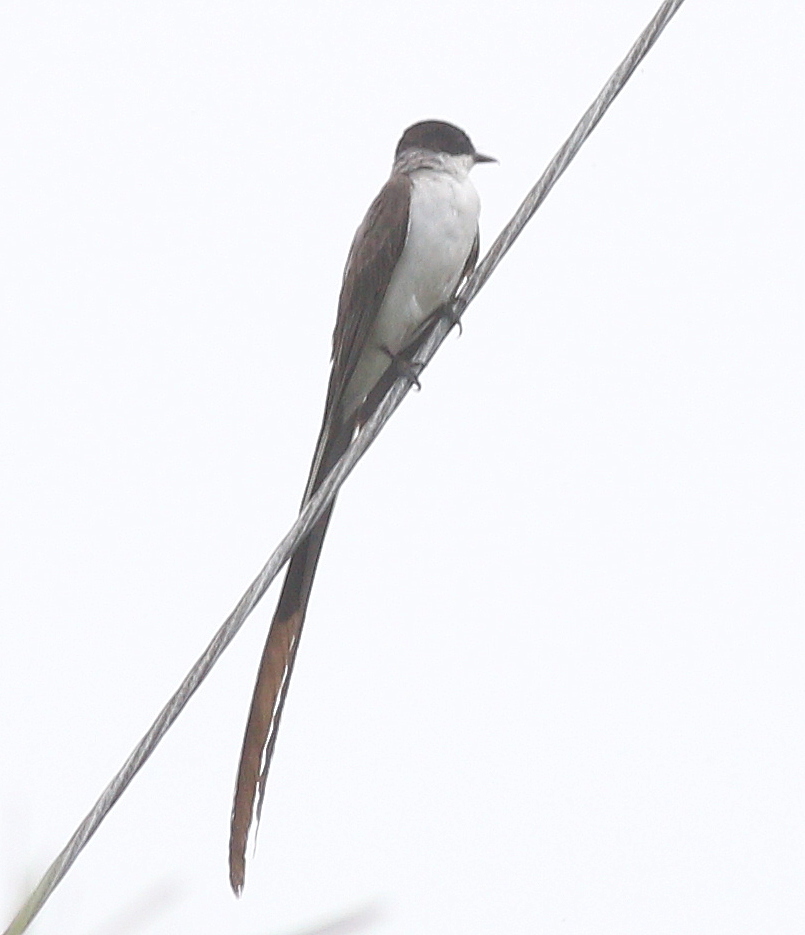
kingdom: Animalia
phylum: Chordata
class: Aves
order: Passeriformes
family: Tyrannidae
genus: Tyrannus
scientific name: Tyrannus savana
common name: Fork-tailed flycatcher
